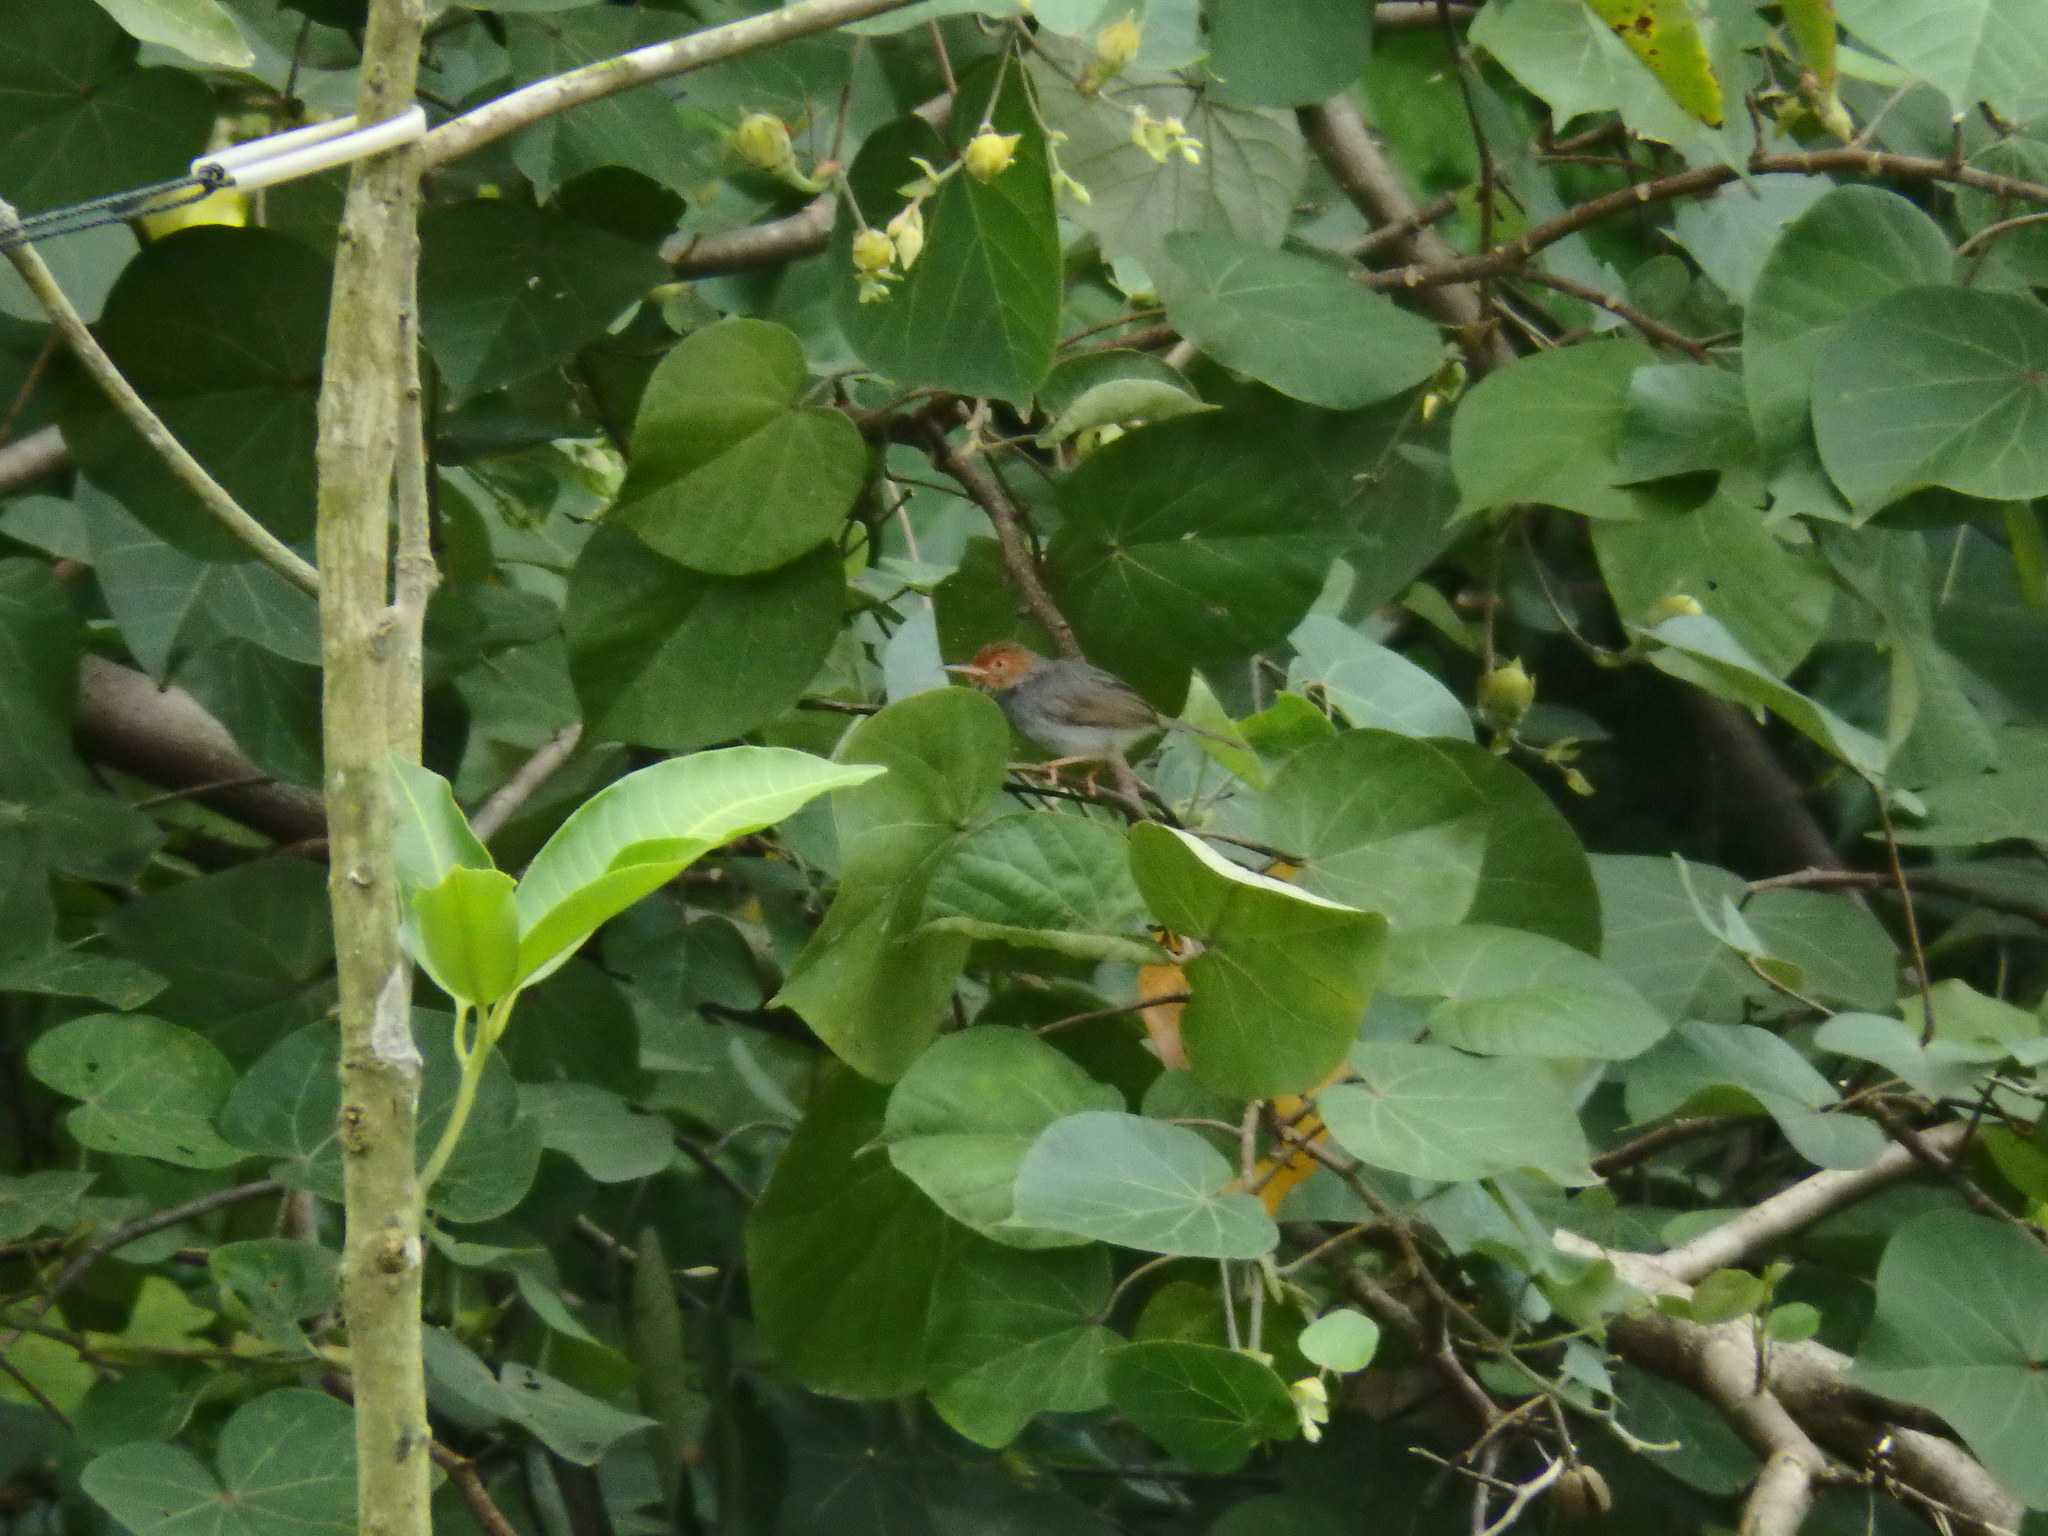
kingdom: Animalia
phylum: Chordata
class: Aves
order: Passeriformes
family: Cisticolidae
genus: Orthotomus
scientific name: Orthotomus ruficeps
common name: Ashy tailorbird
